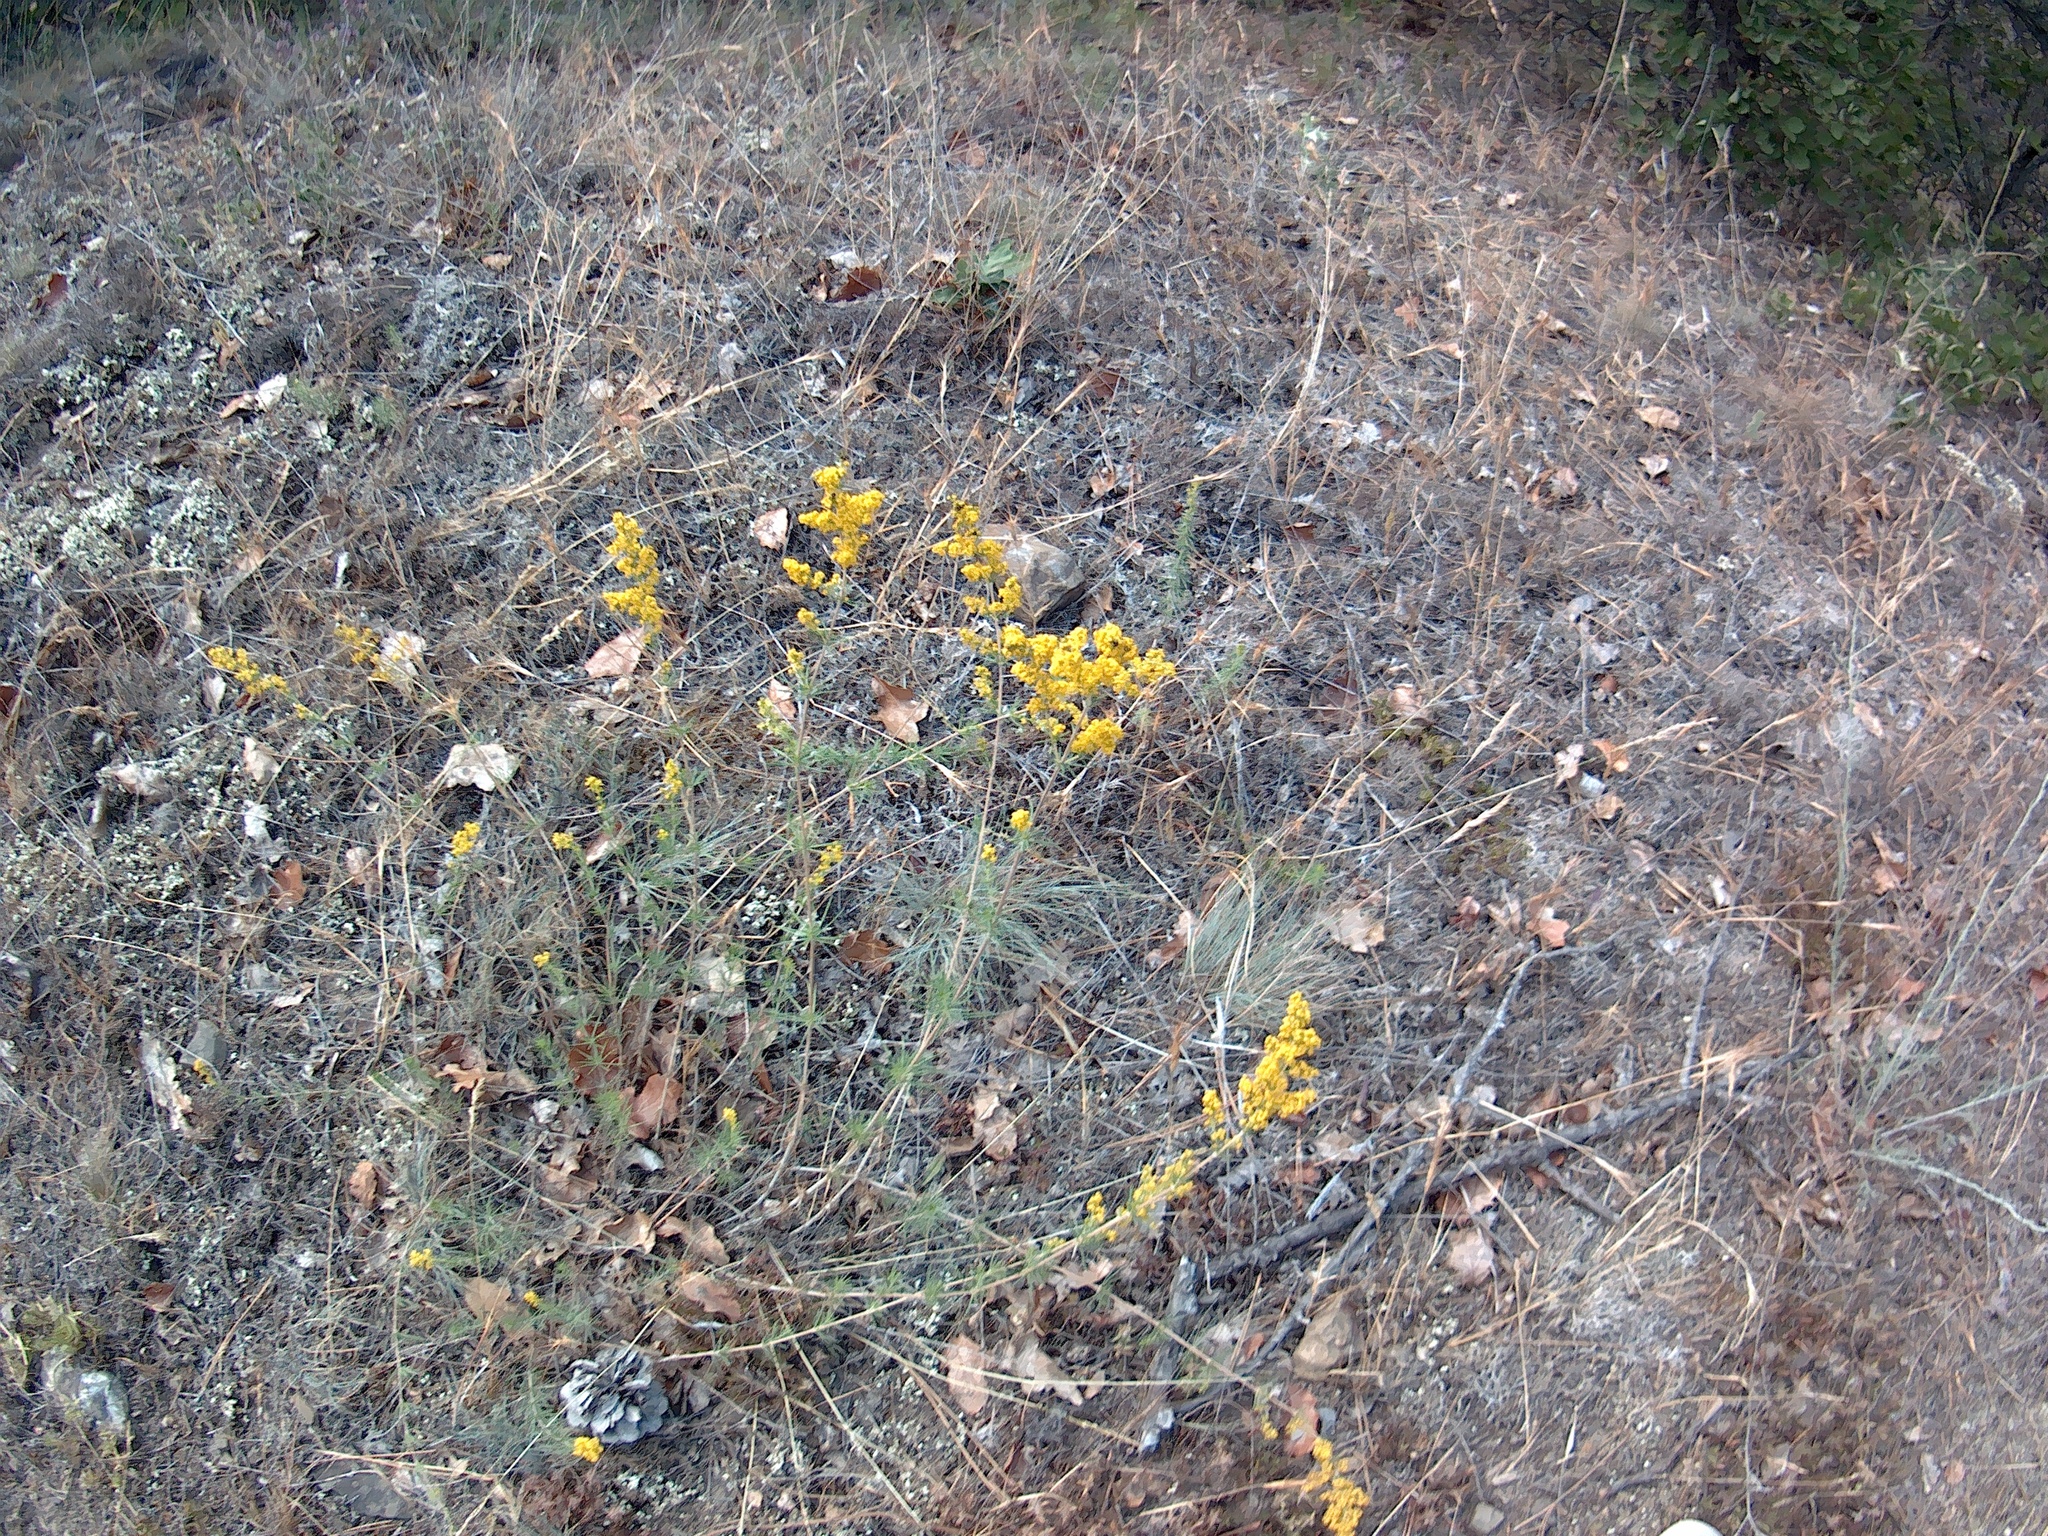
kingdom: Plantae
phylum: Tracheophyta
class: Magnoliopsida
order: Gentianales
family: Rubiaceae
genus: Galium
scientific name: Galium verum
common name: Lady's bedstraw
